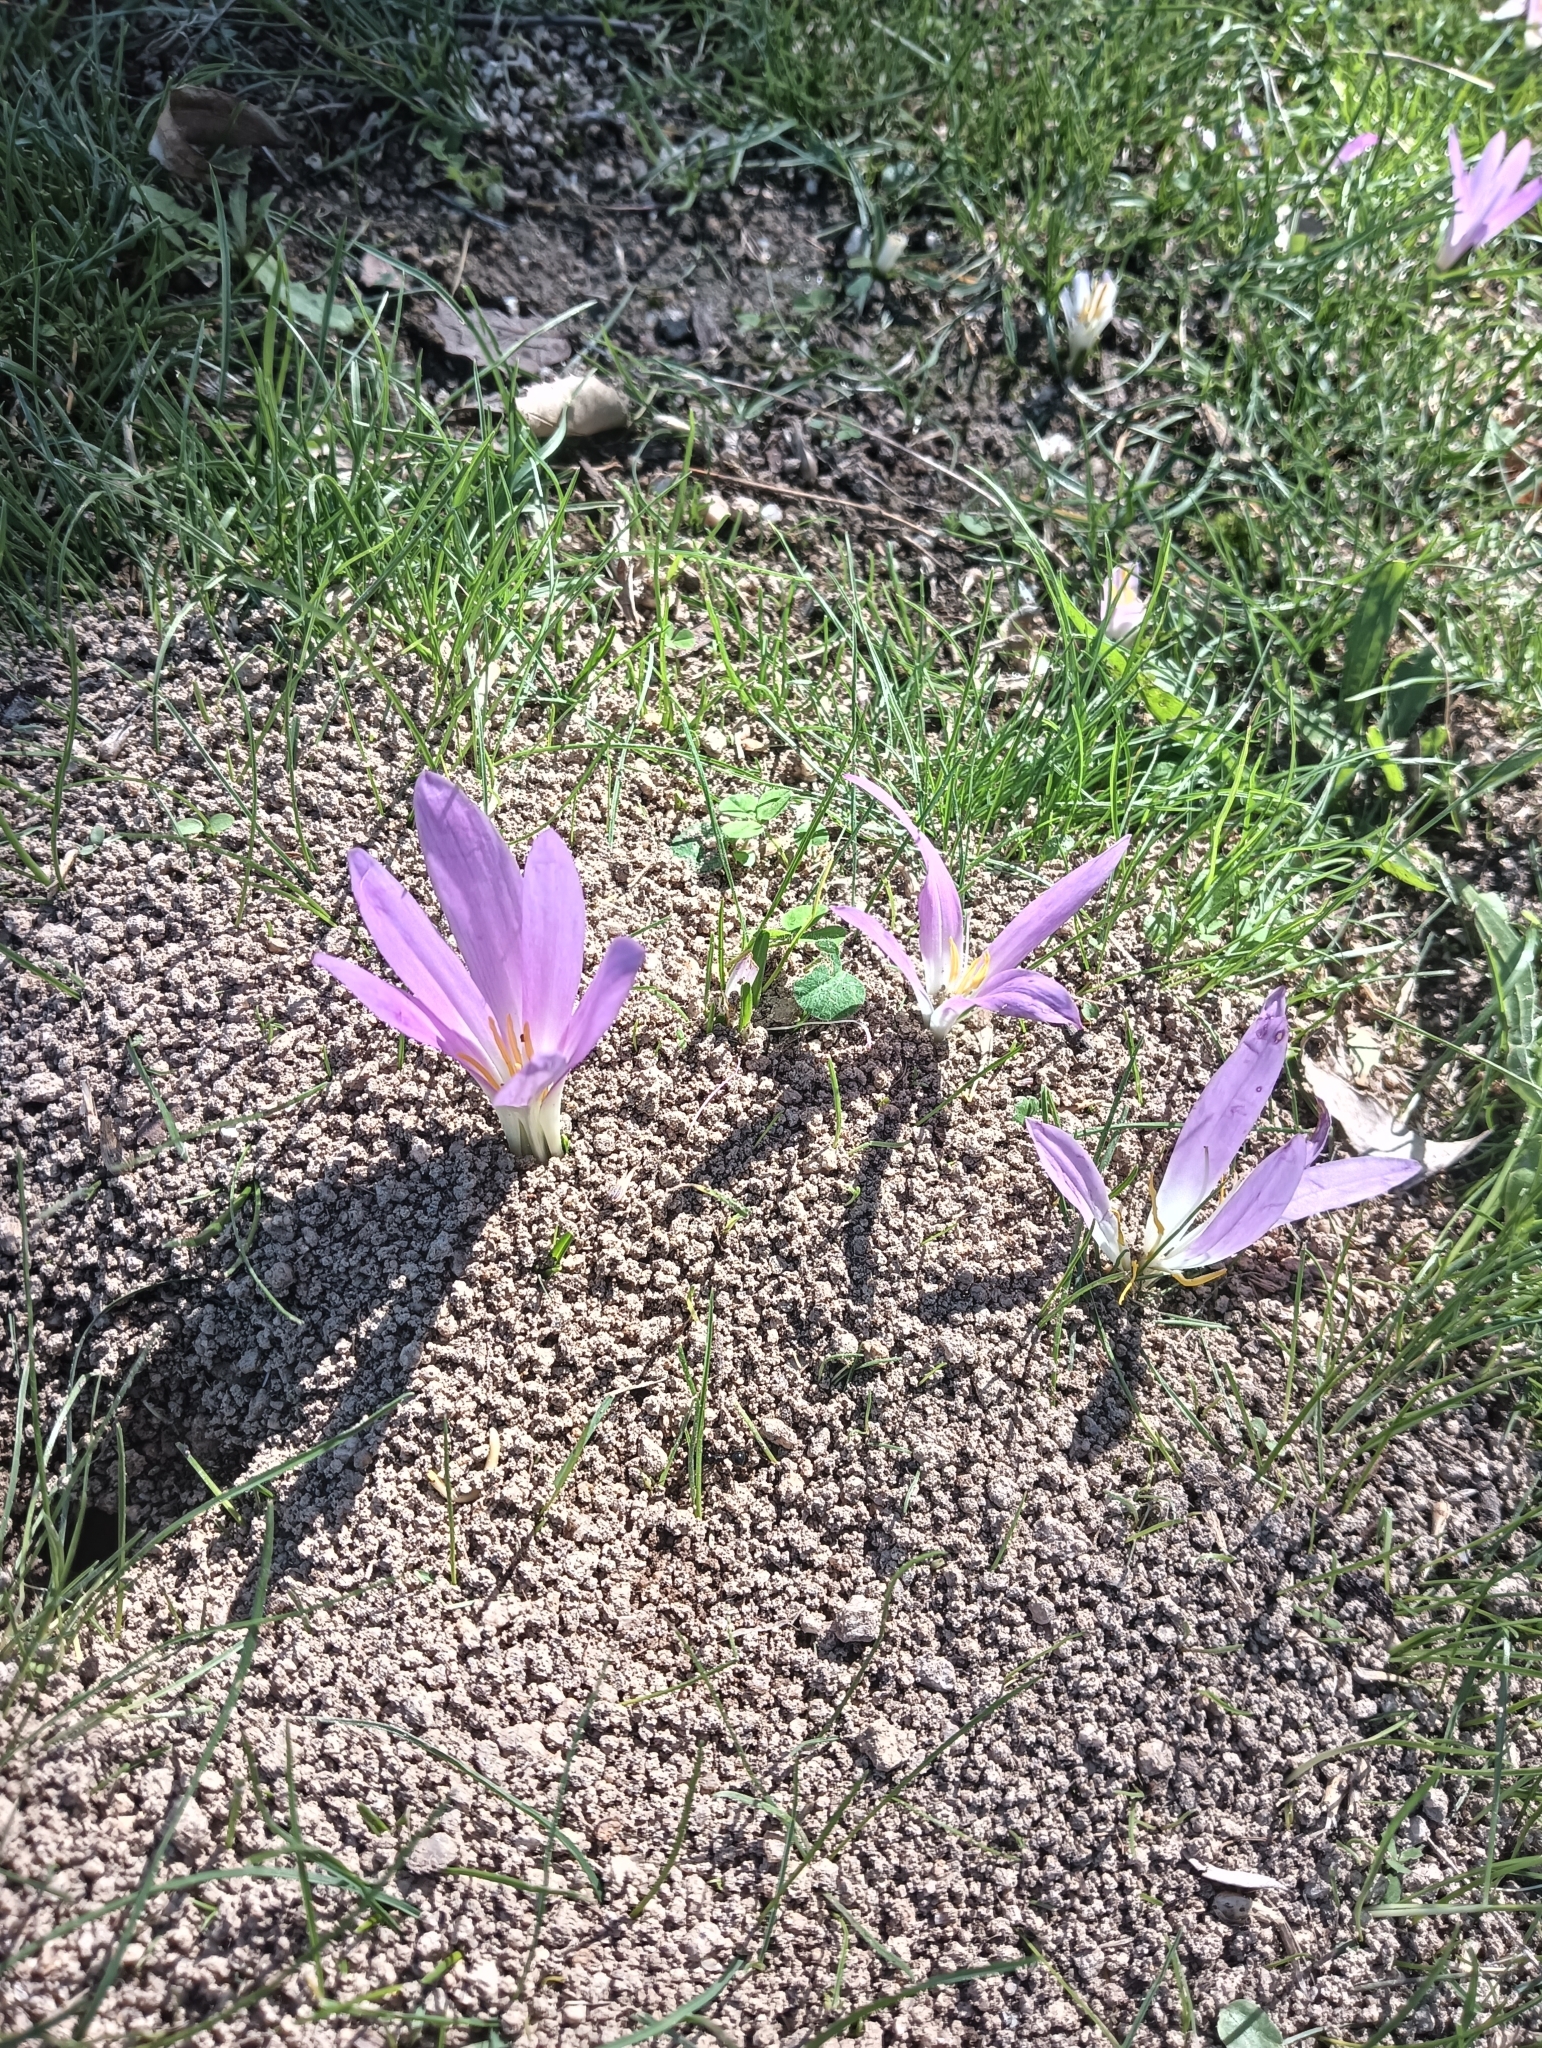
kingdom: Plantae
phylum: Tracheophyta
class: Liliopsida
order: Liliales
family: Colchicaceae
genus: Colchicum
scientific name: Colchicum montanum
